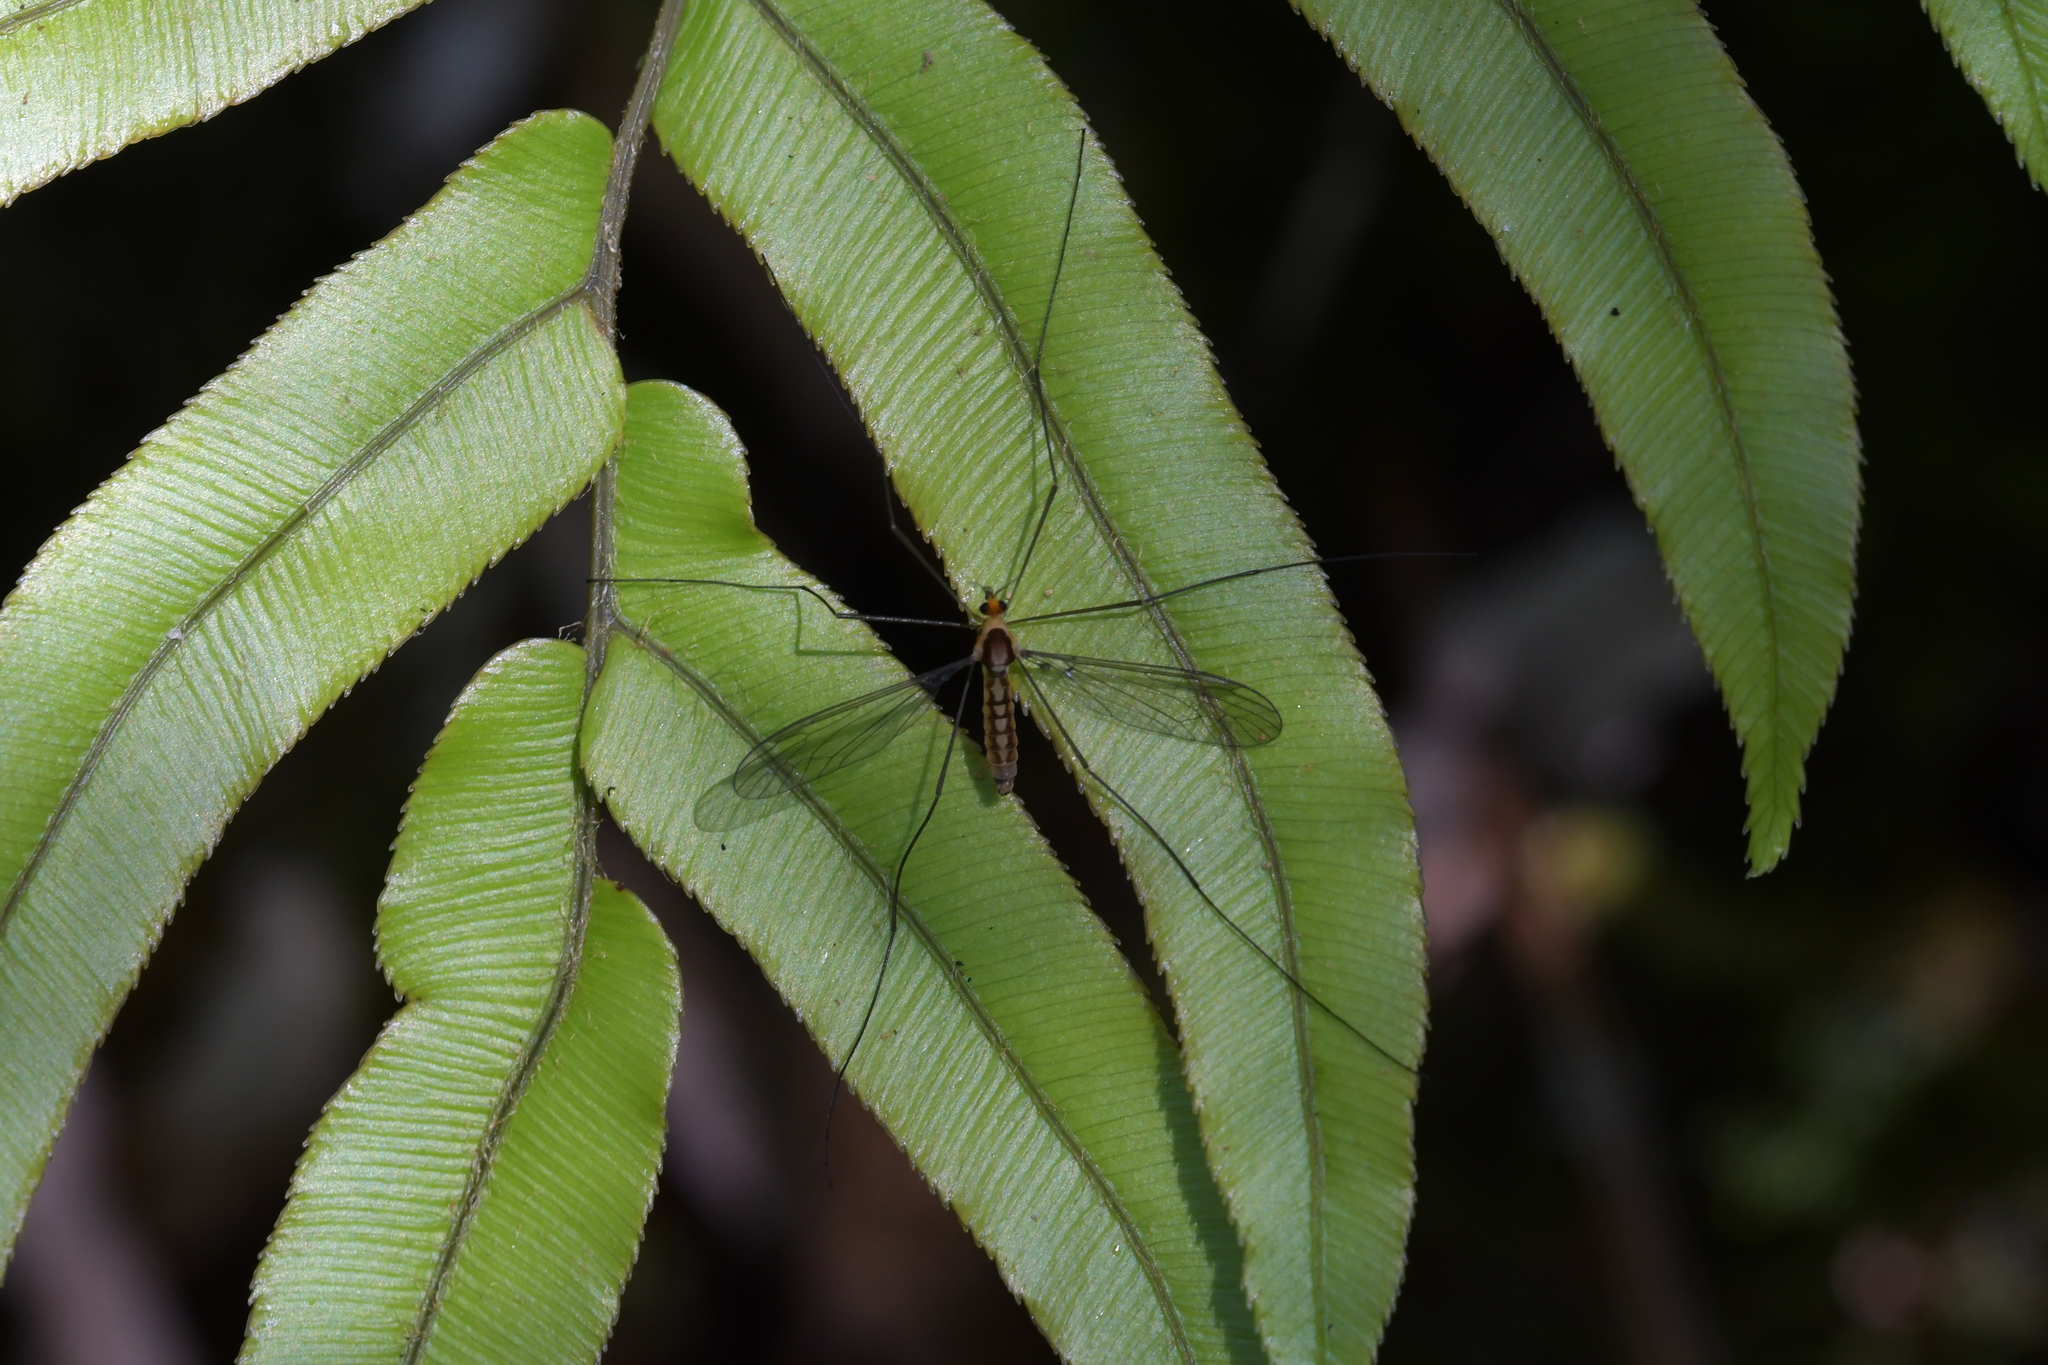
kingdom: Animalia
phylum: Arthropoda
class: Insecta
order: Diptera
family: Tipulidae
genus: Leptotarsus
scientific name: Leptotarsus subtener
